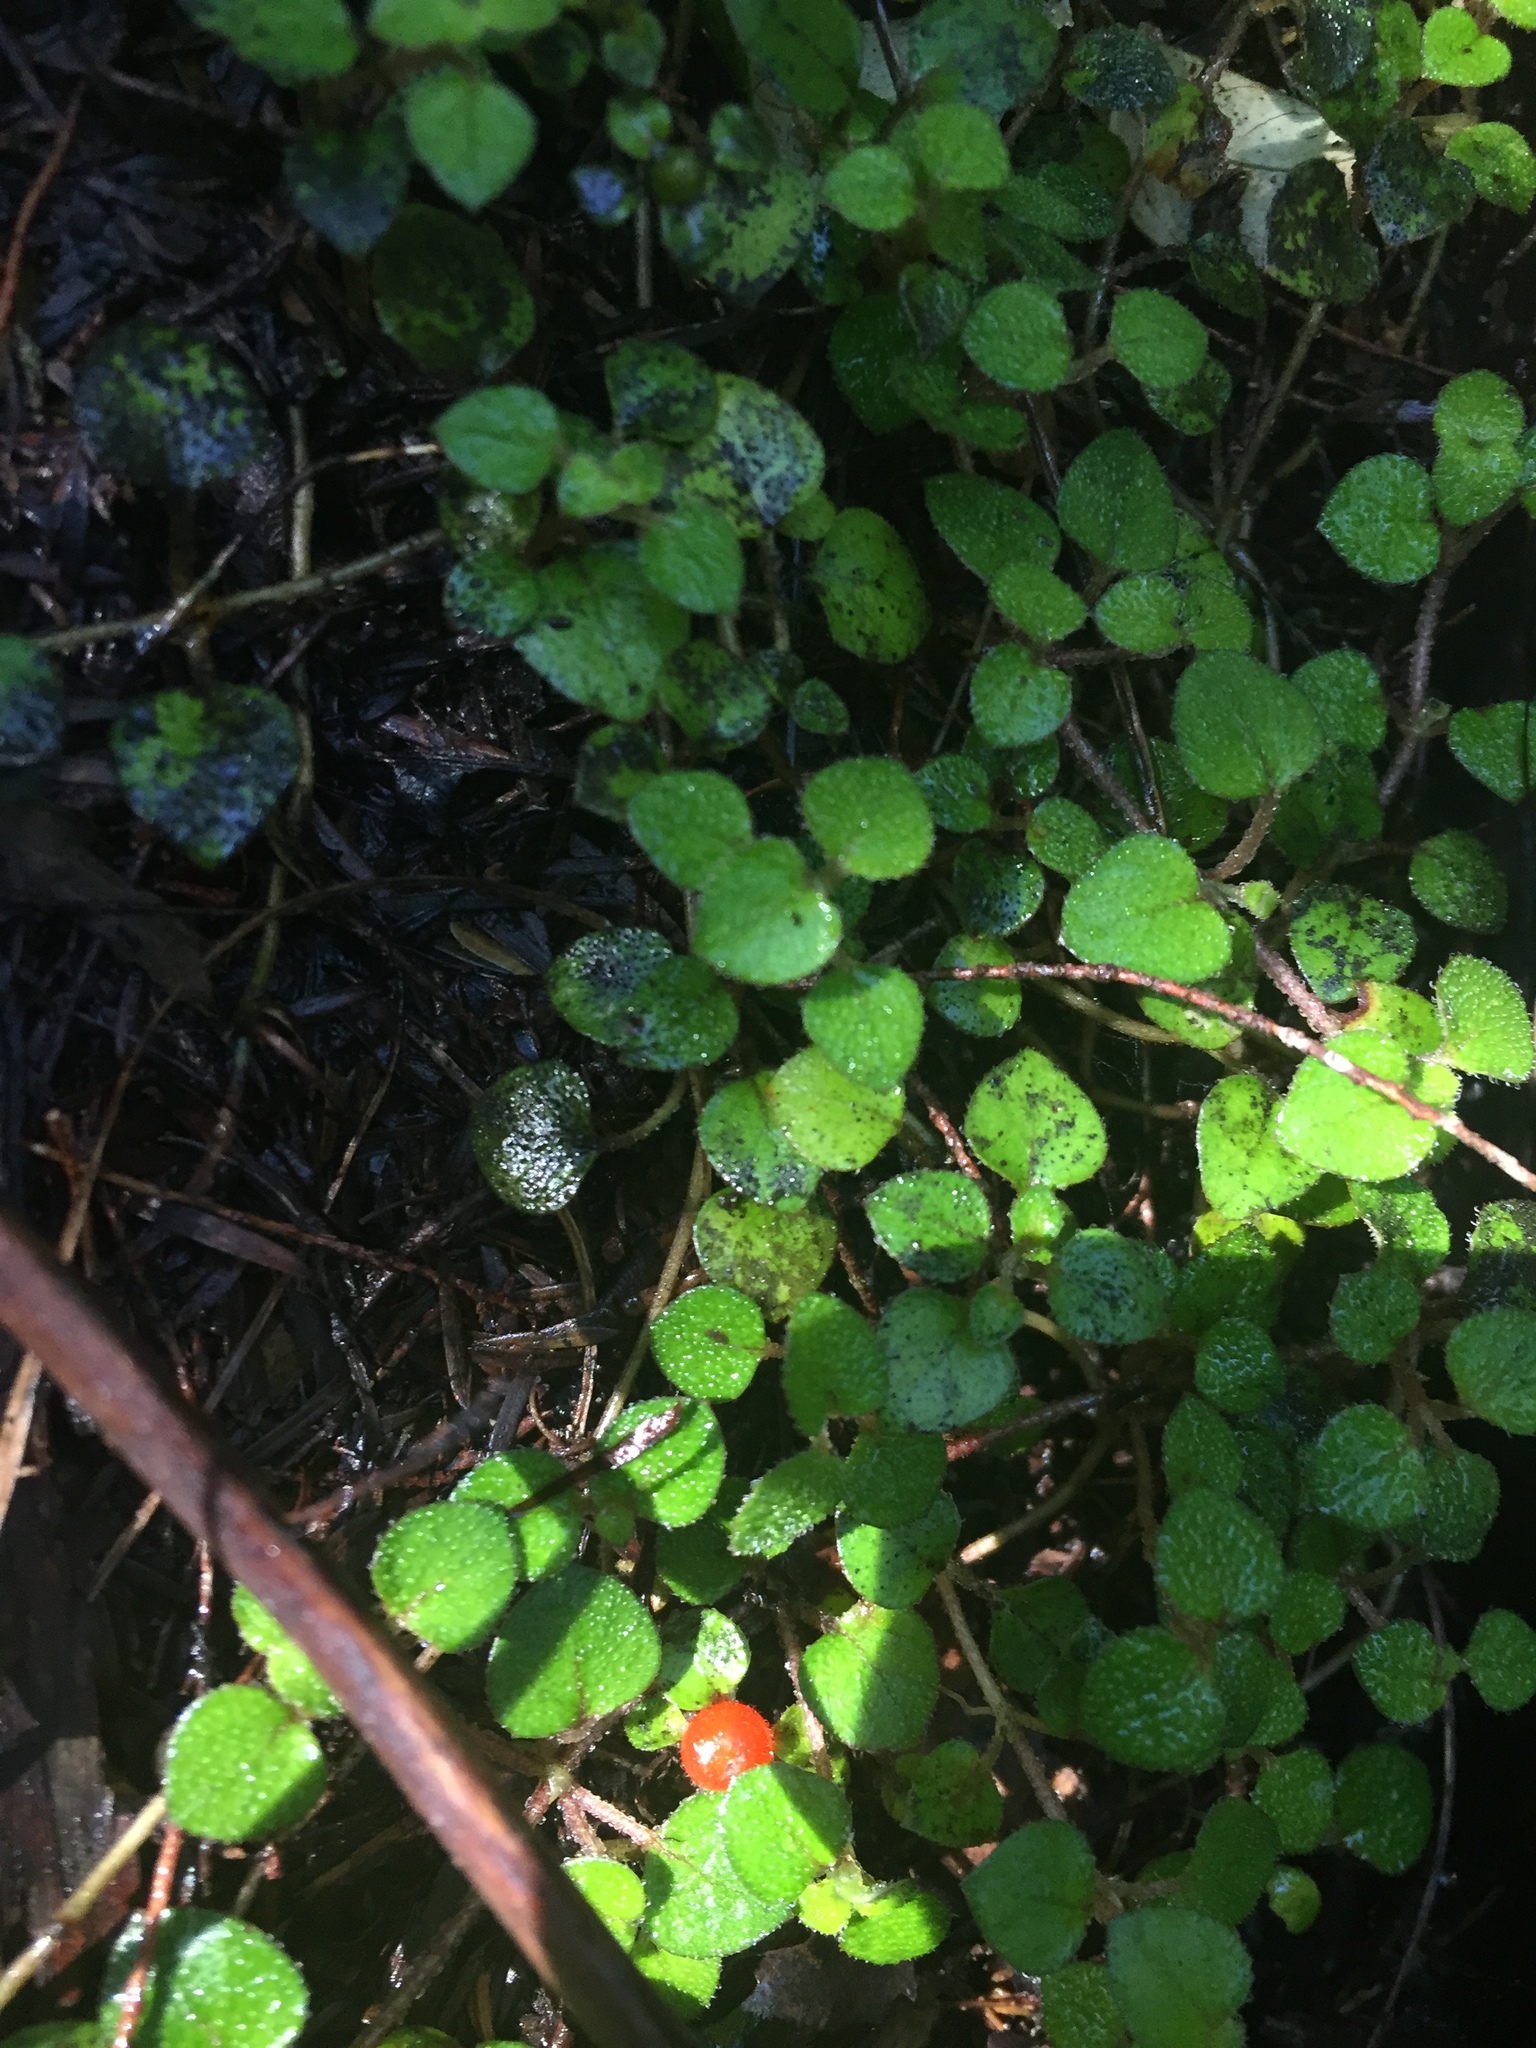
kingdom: Plantae
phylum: Tracheophyta
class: Magnoliopsida
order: Gentianales
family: Rubiaceae
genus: Nertera
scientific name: Nertera dichondrifolia
